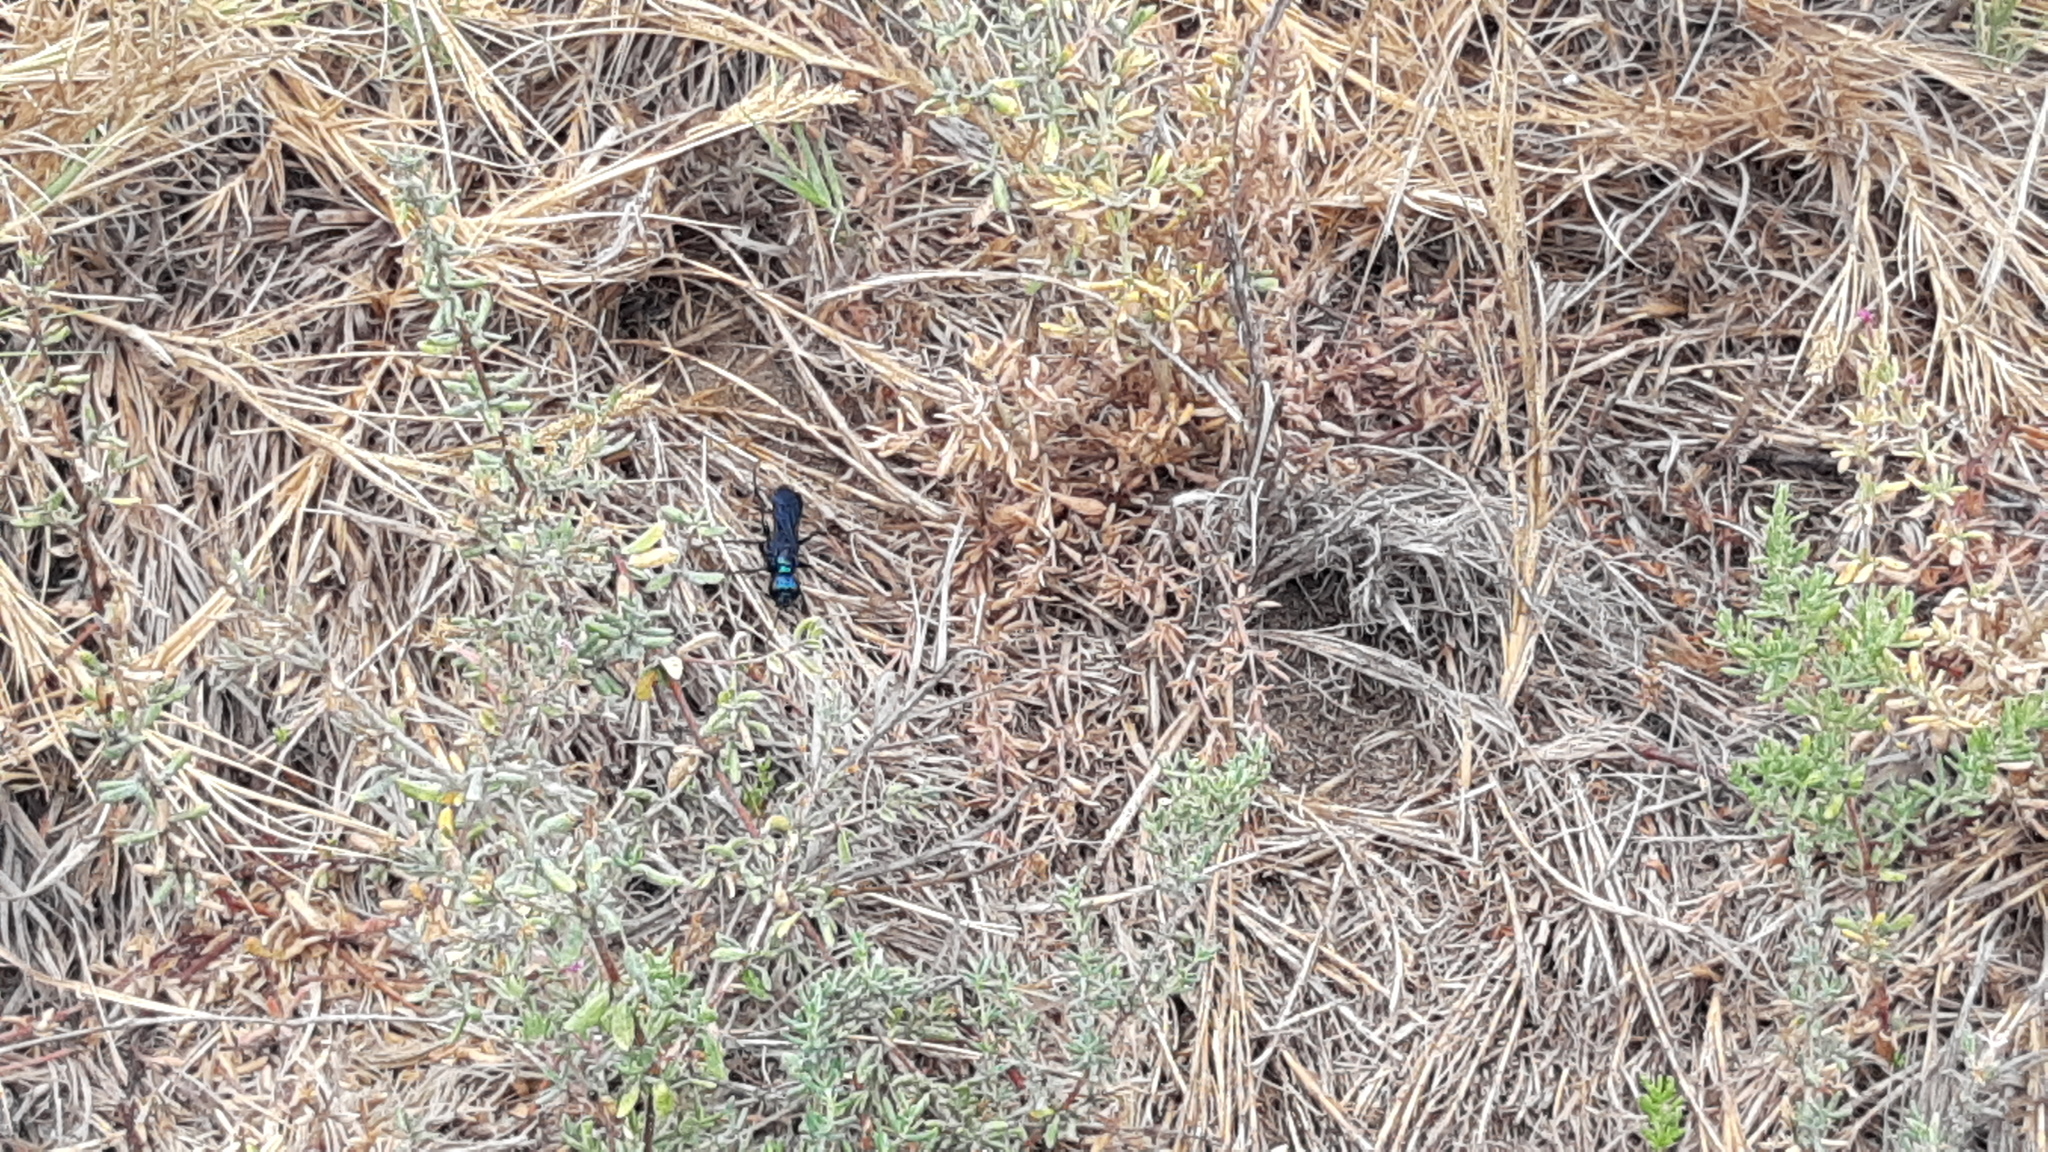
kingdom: Animalia
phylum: Arthropoda
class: Insecta
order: Hymenoptera
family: Sphecidae
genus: Chlorion
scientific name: Chlorion aerarium
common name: Steel-blue cricket hunter
